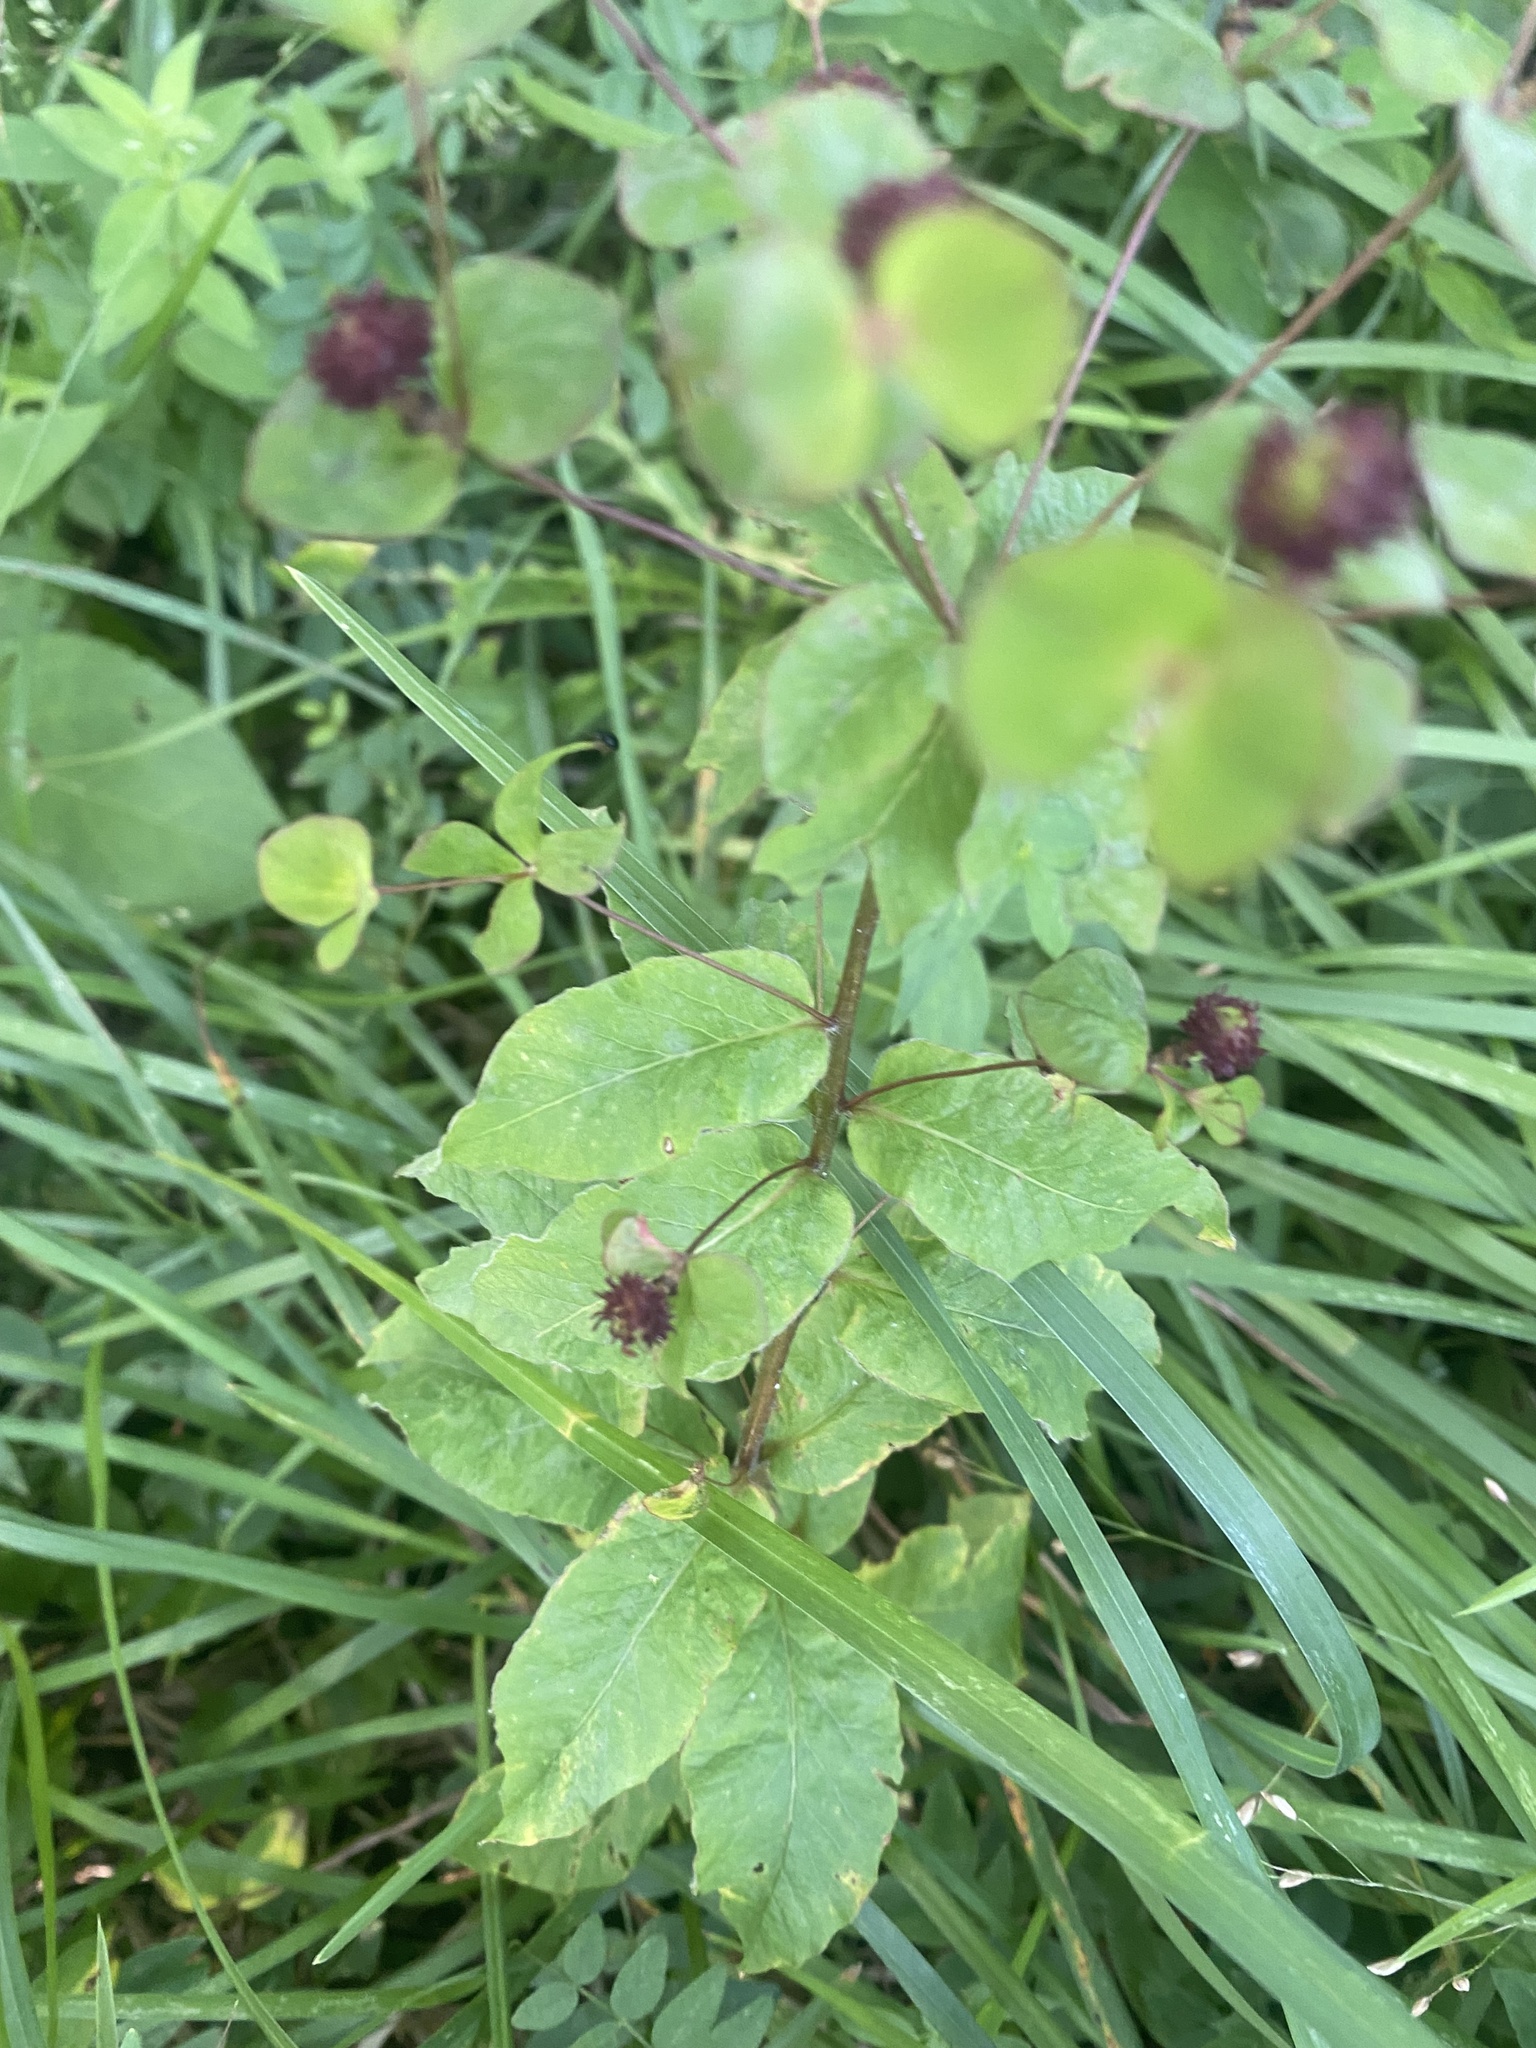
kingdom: Plantae
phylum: Tracheophyta
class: Magnoliopsida
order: Malpighiales
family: Euphorbiaceae
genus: Euphorbia
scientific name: Euphorbia squamosa
